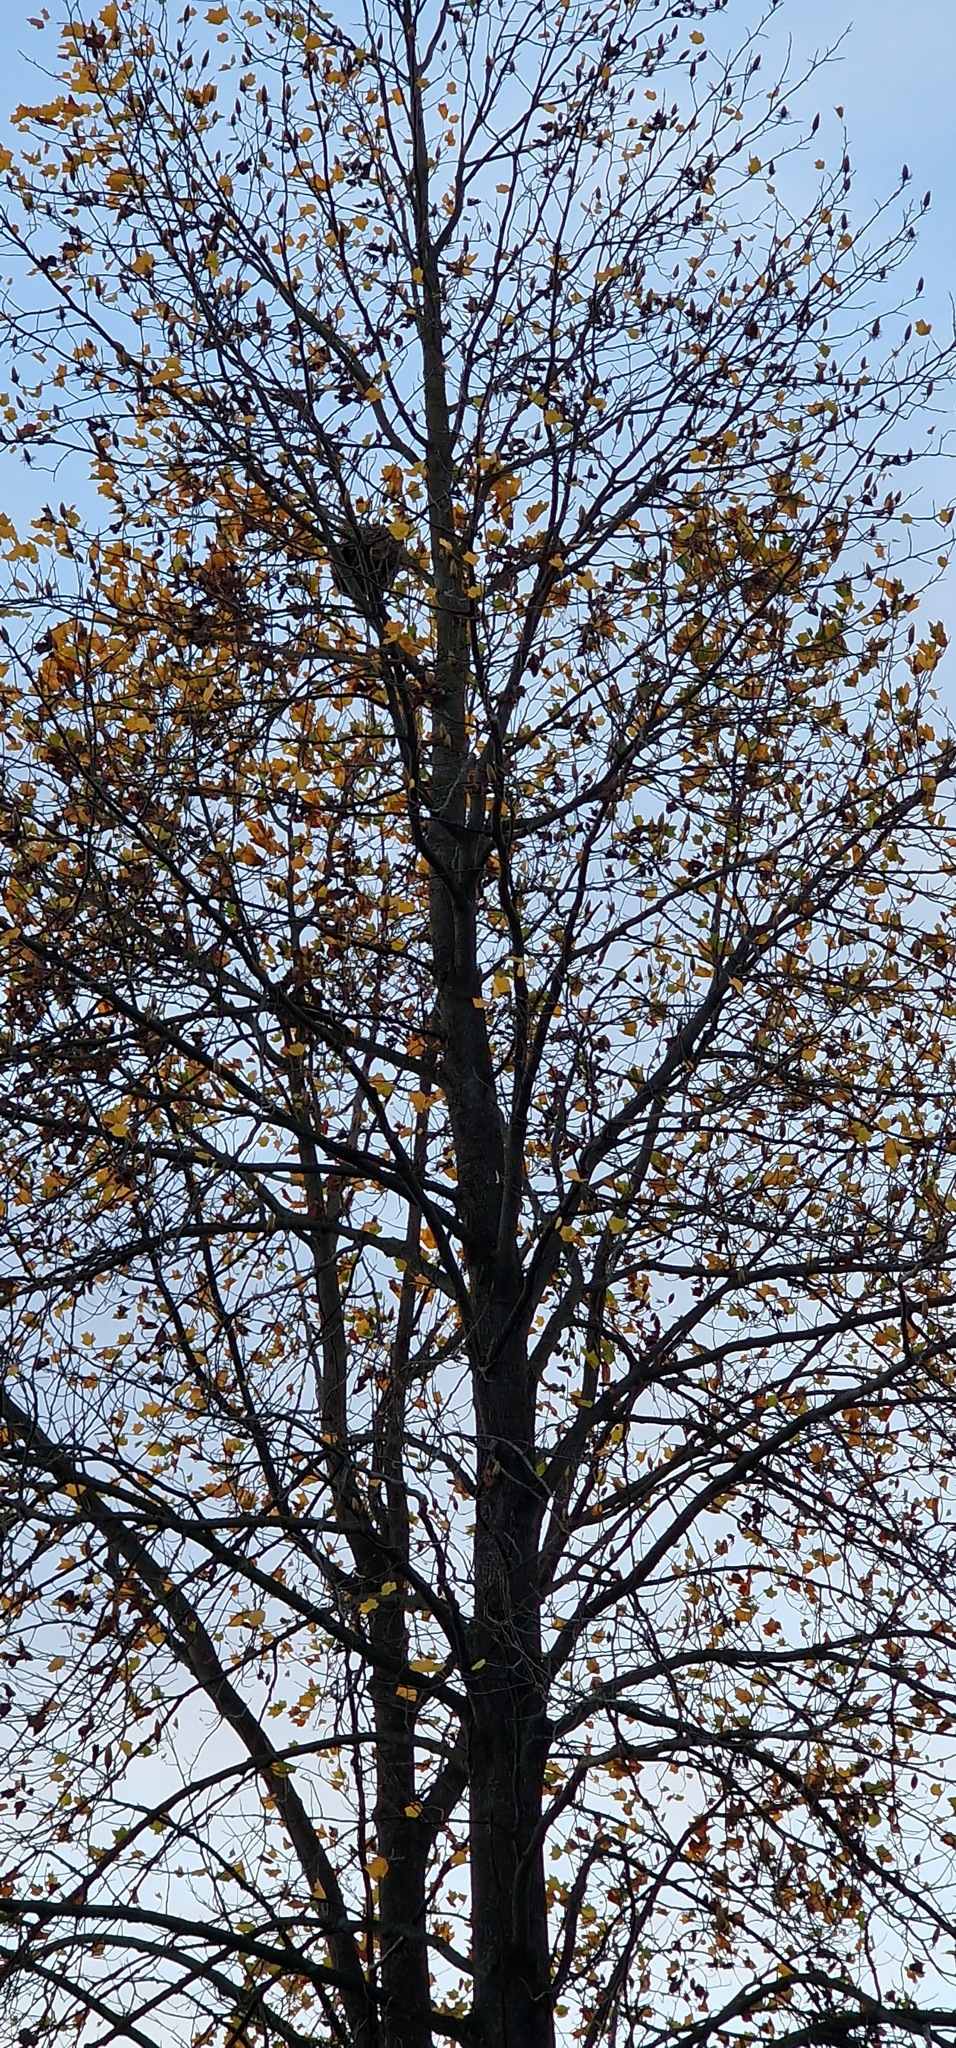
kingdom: Animalia
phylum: Arthropoda
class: Insecta
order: Hymenoptera
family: Vespidae
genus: Vespa
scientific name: Vespa velutina
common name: Asian hornet
